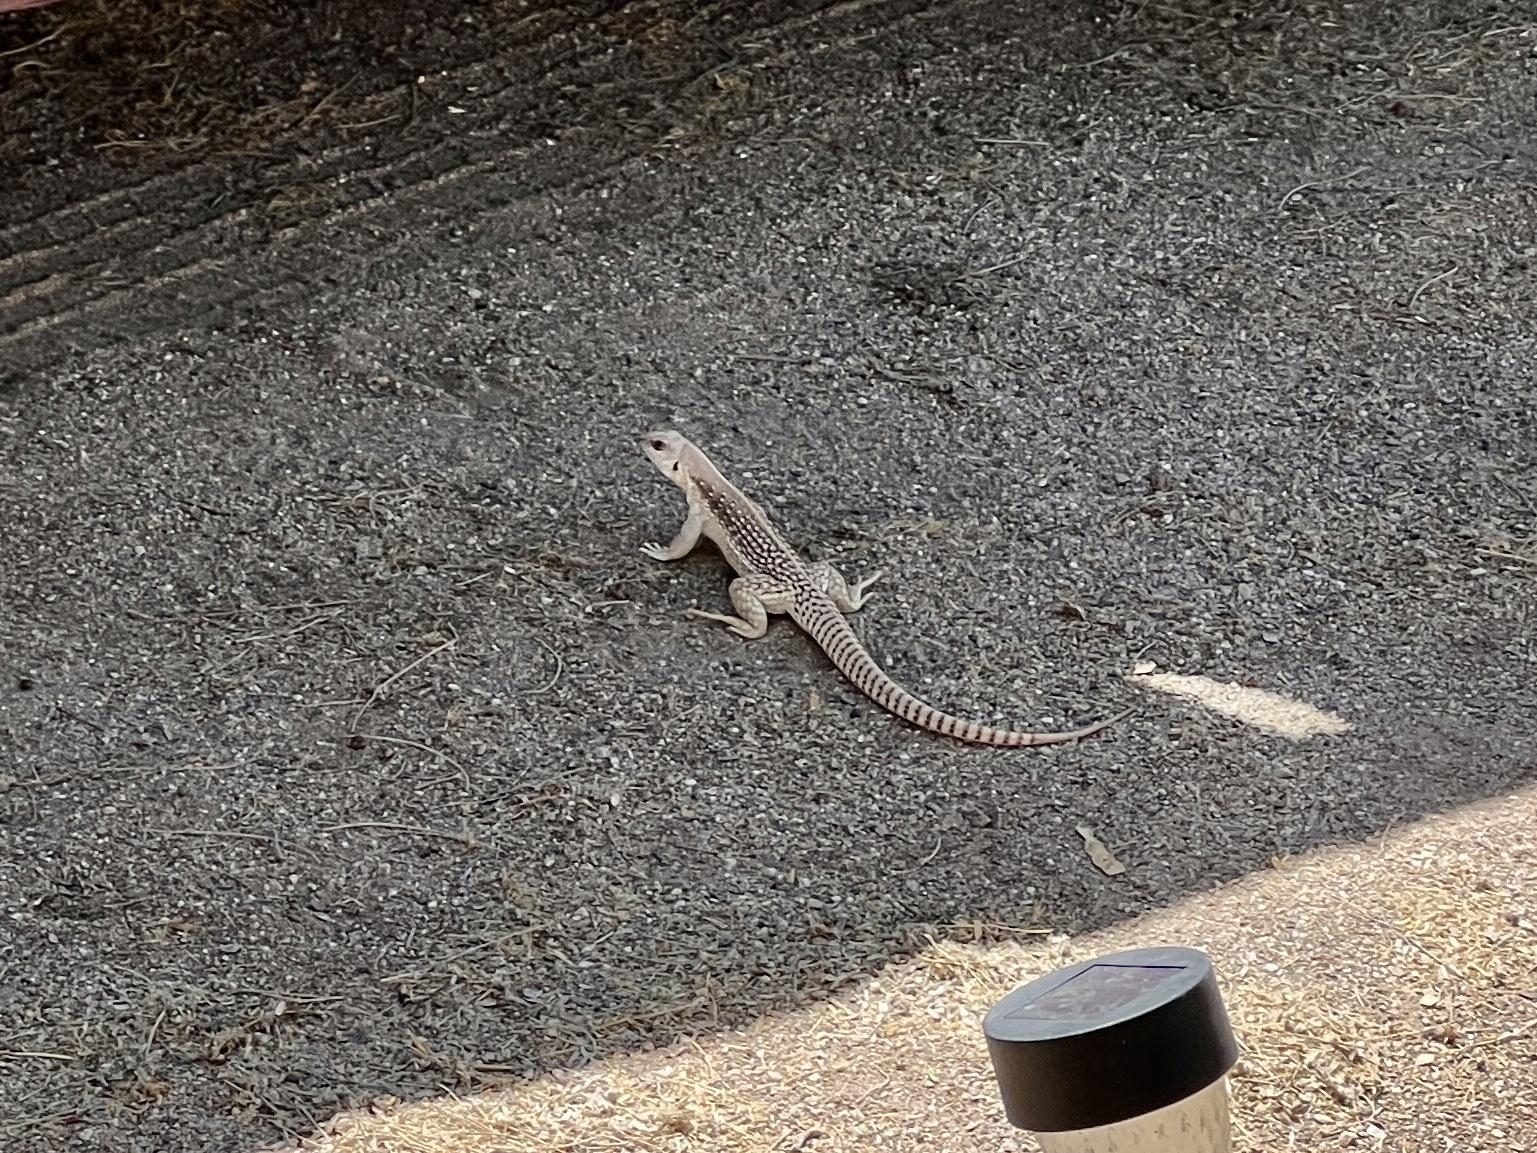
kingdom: Animalia
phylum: Chordata
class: Squamata
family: Iguanidae
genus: Dipsosaurus
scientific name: Dipsosaurus dorsalis
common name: Desert iguana
